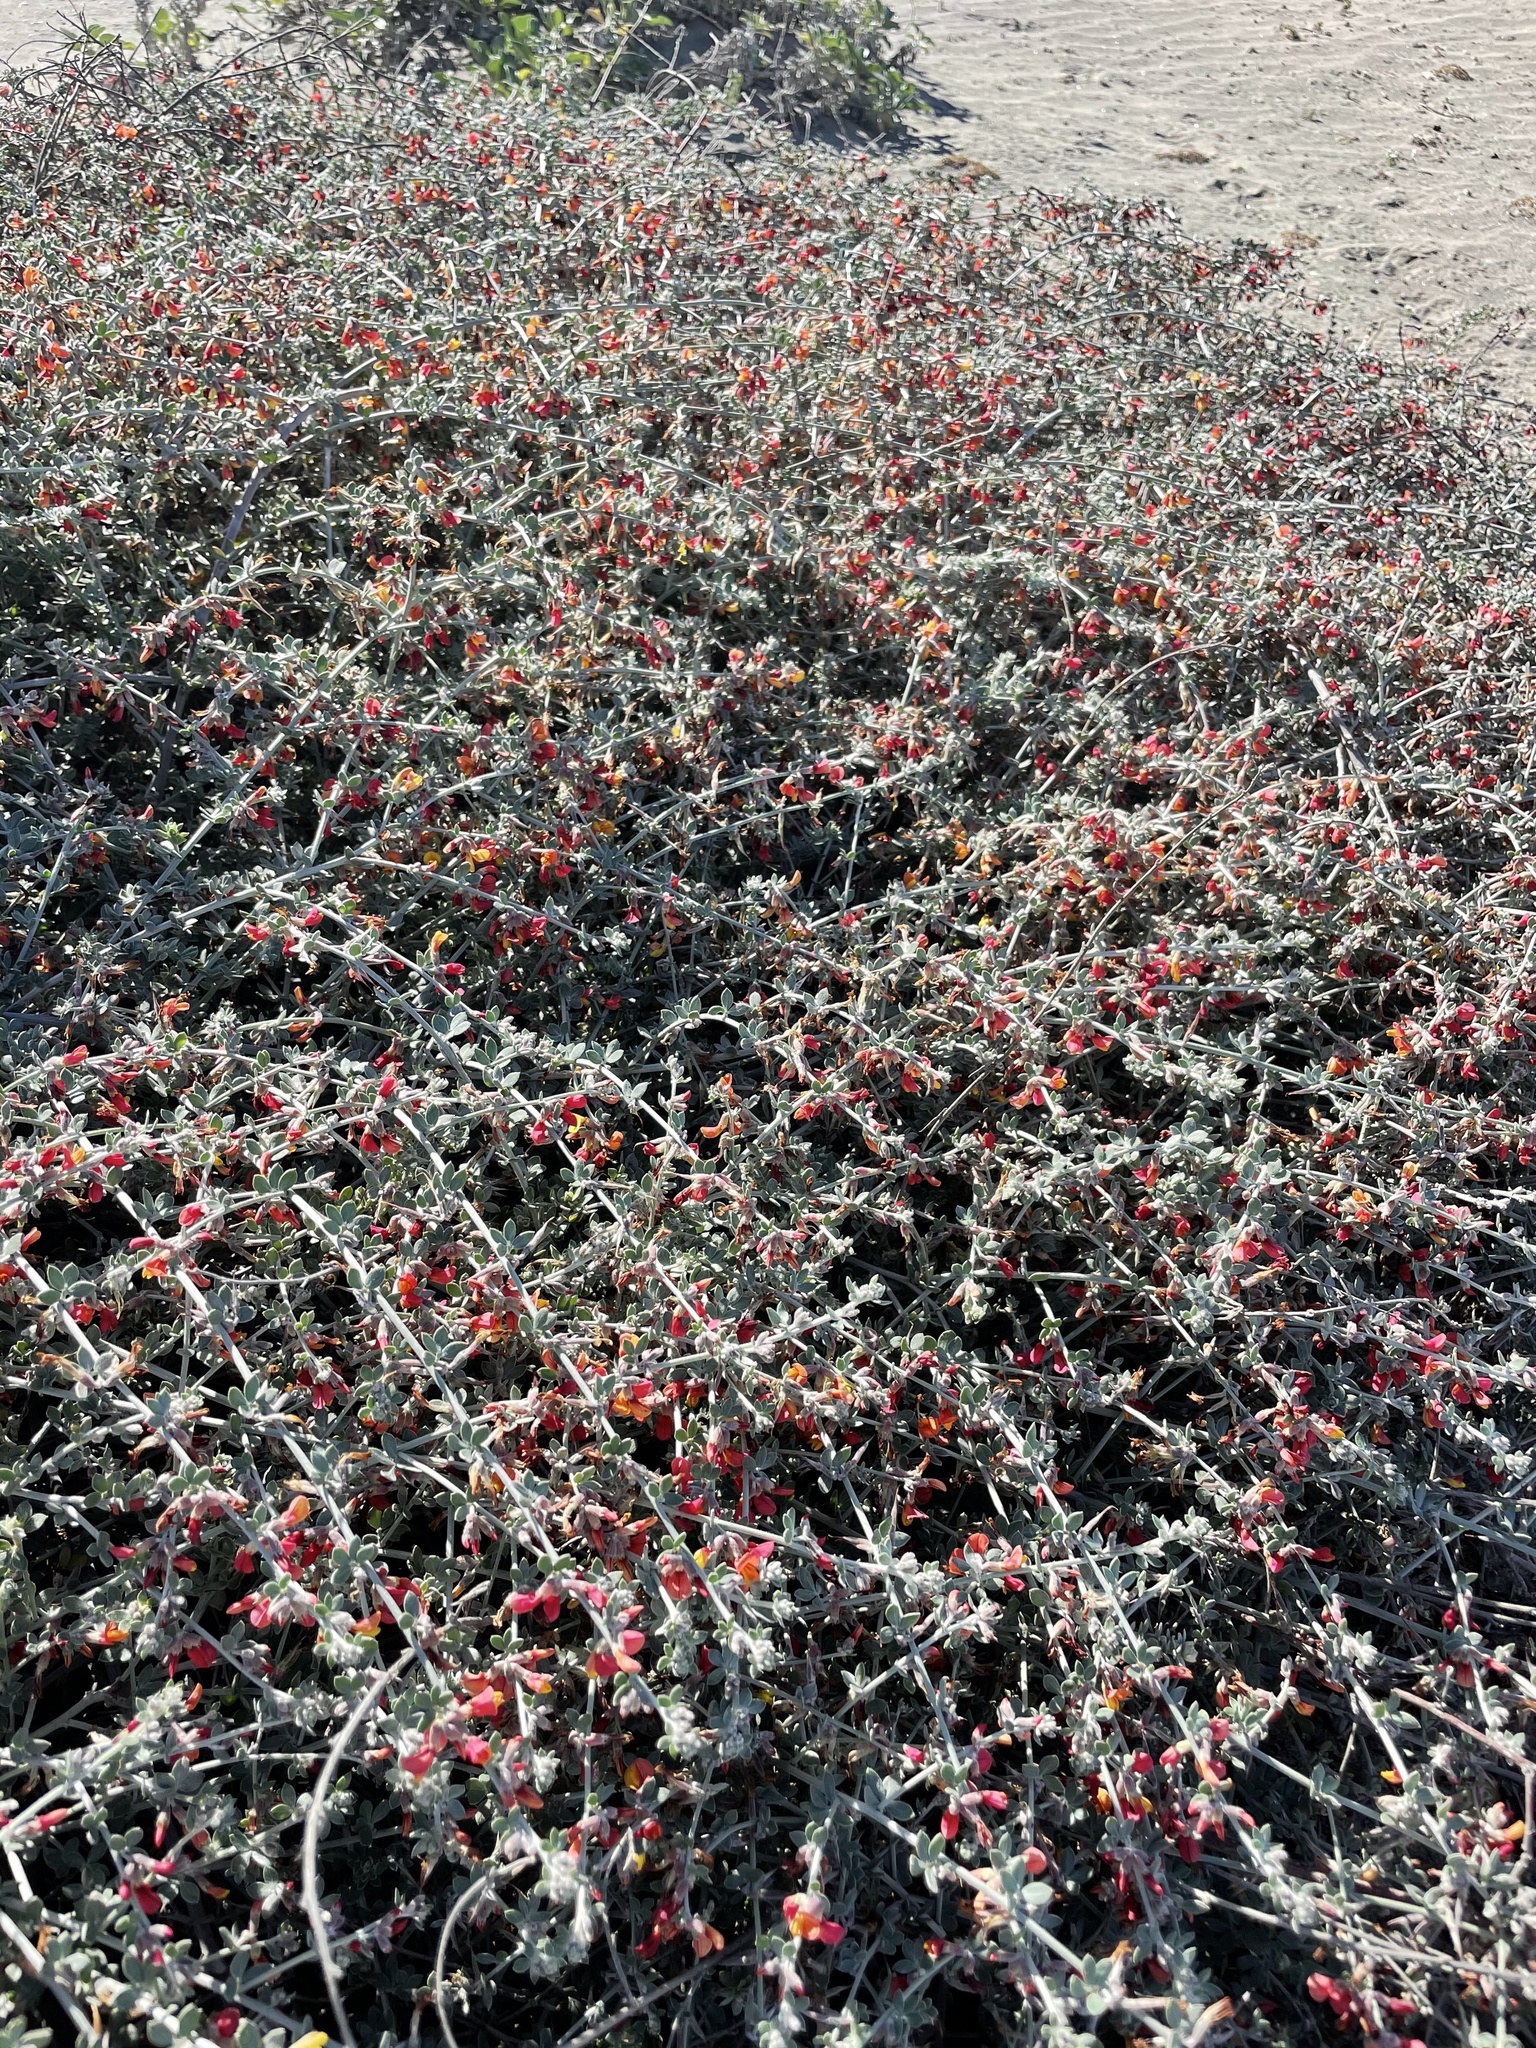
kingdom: Plantae
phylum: Tracheophyta
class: Magnoliopsida
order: Fabales
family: Fabaceae
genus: Acmispon
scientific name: Acmispon distichus
